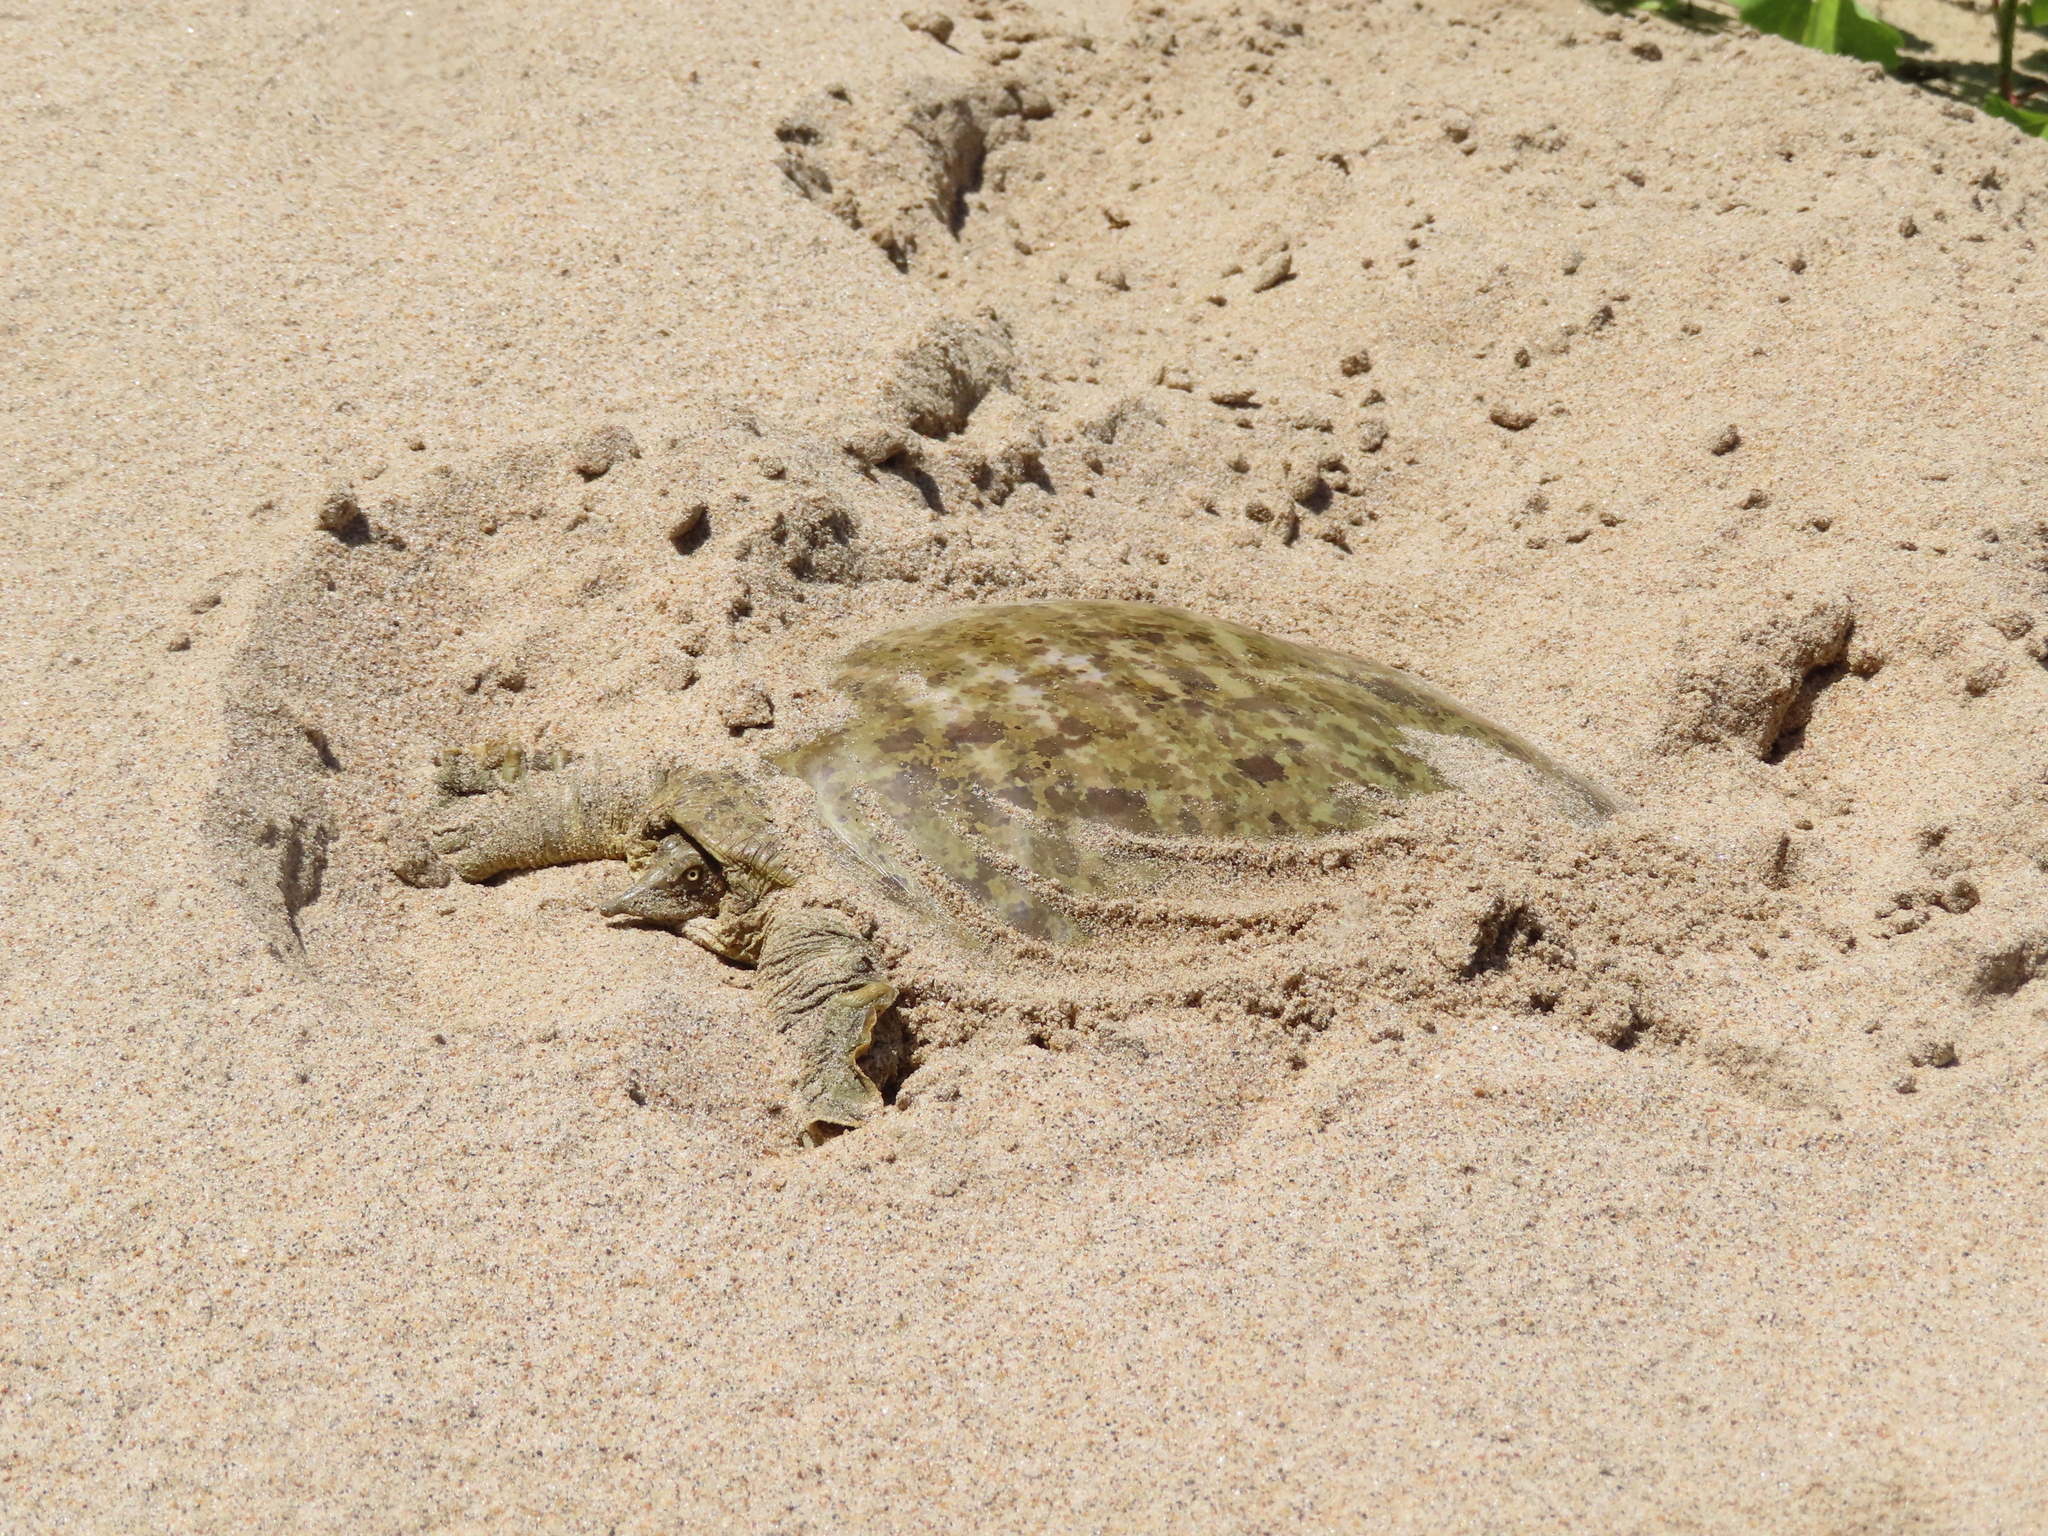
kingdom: Animalia
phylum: Chordata
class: Testudines
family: Trionychidae
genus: Apalone
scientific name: Apalone mutica
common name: Smooth softshell turtle
